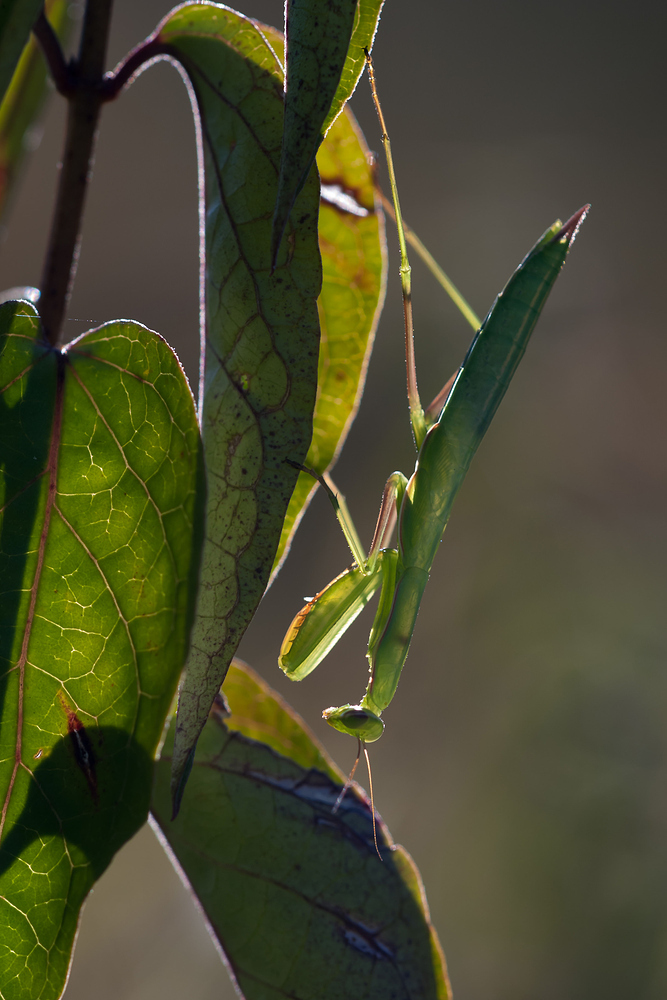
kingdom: Animalia
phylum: Arthropoda
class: Insecta
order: Mantodea
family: Mantidae
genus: Mantis
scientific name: Mantis religiosa
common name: Praying mantis
